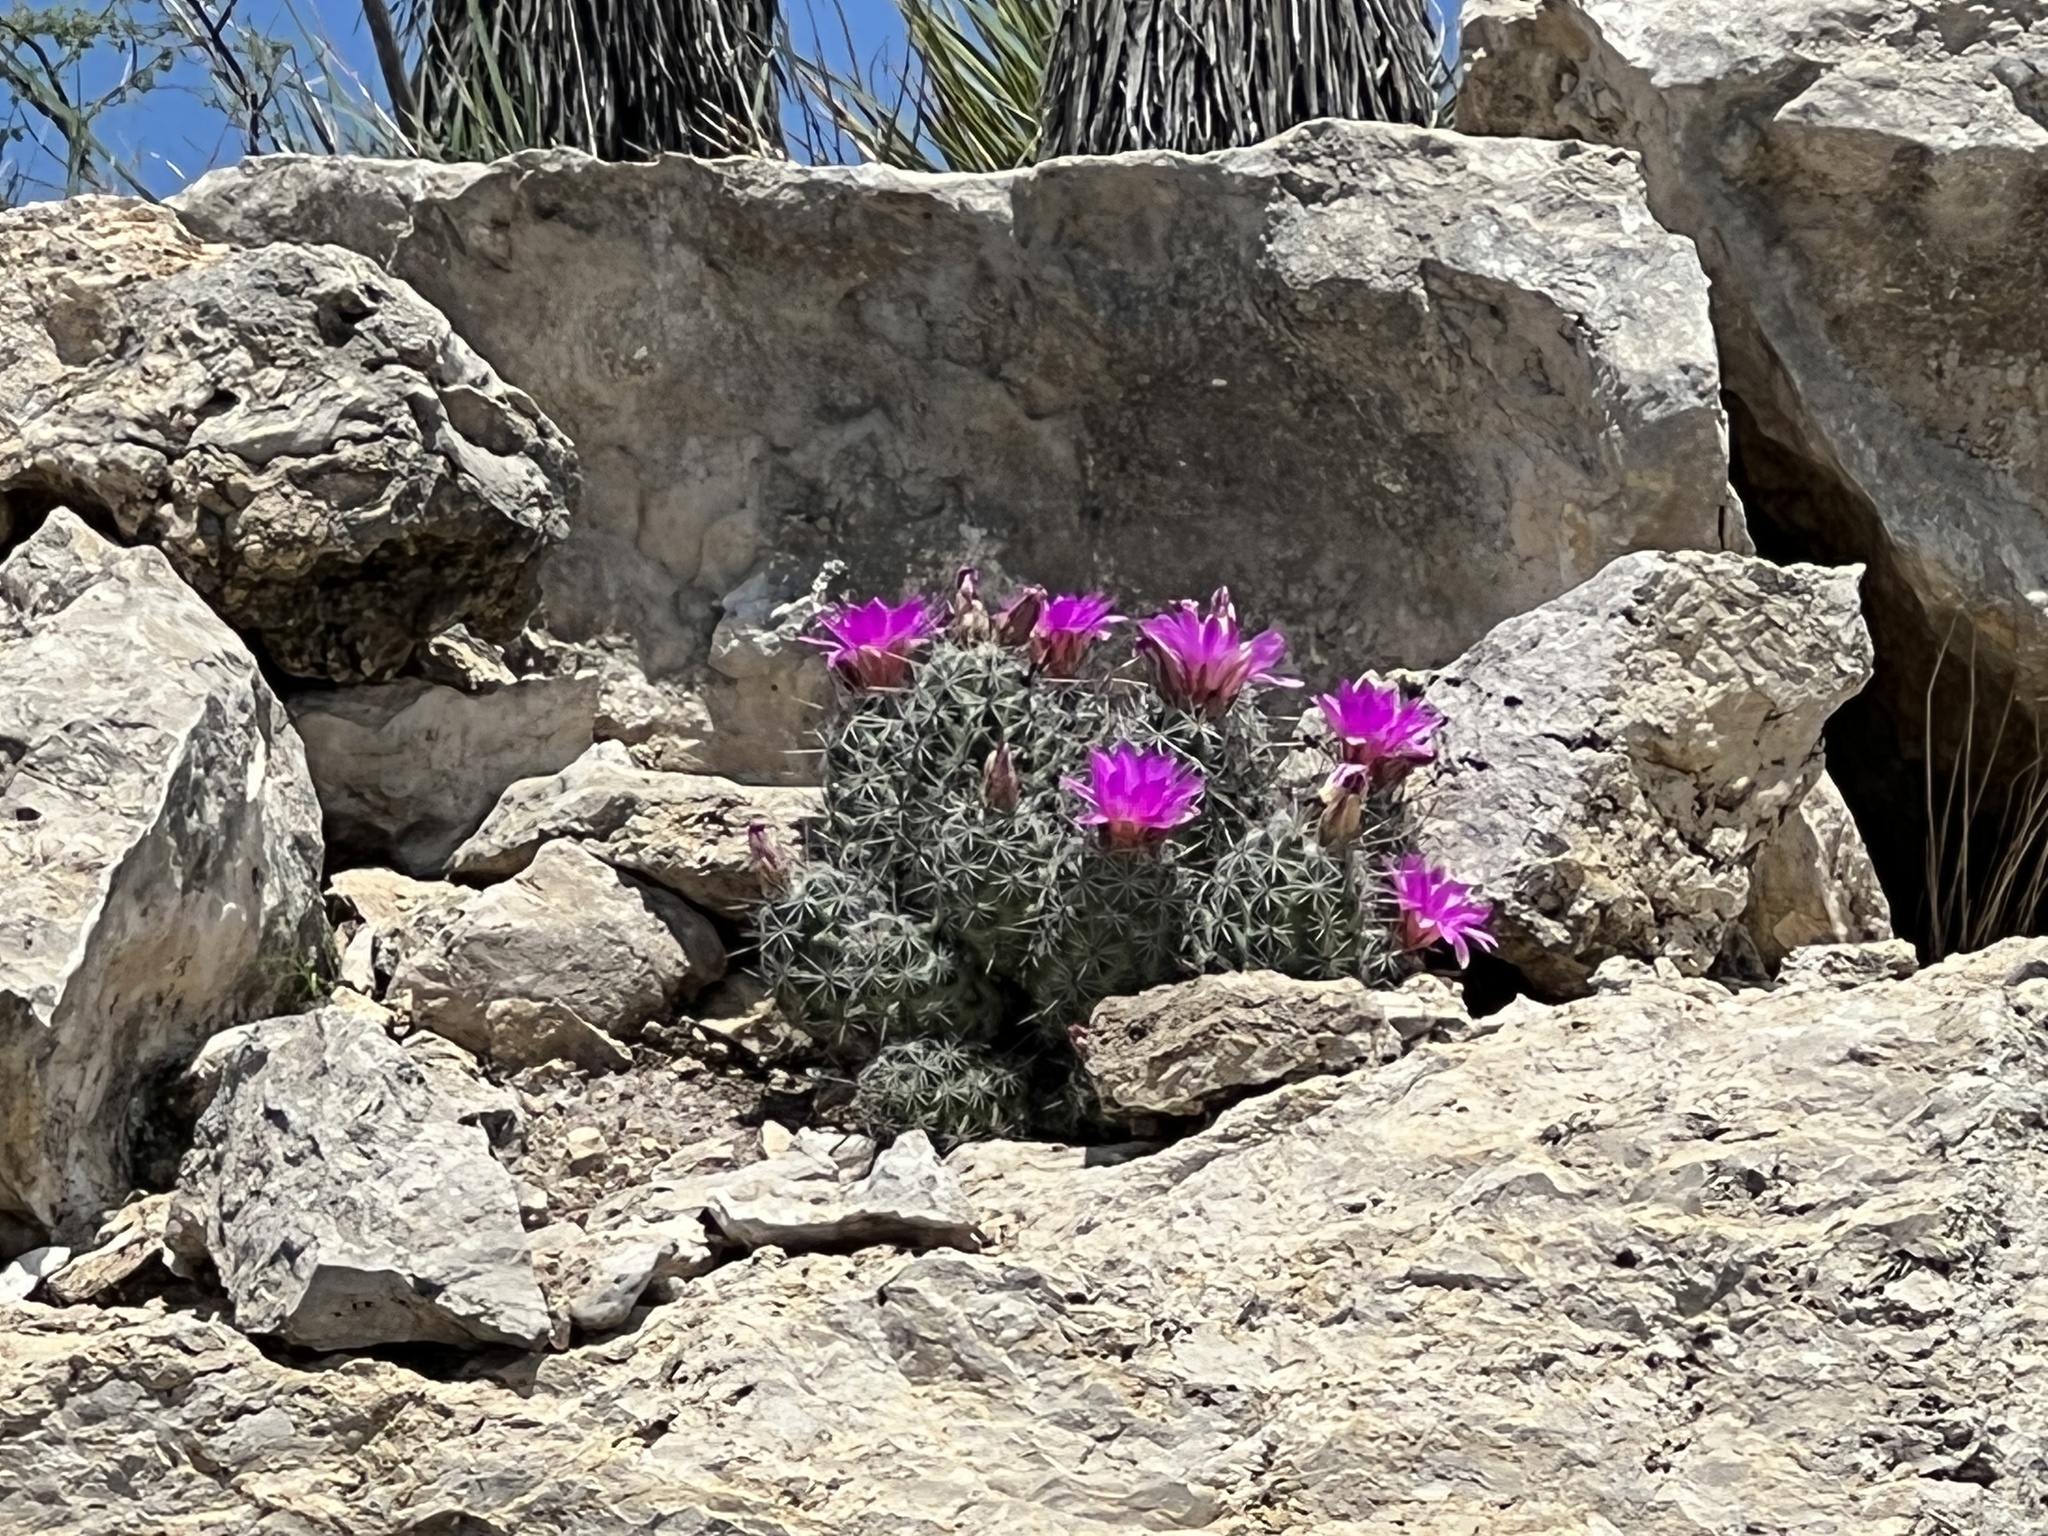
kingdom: Plantae
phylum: Tracheophyta
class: Magnoliopsida
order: Caryophyllales
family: Cactaceae
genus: Cochemiea
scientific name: Cochemiea conoidea
